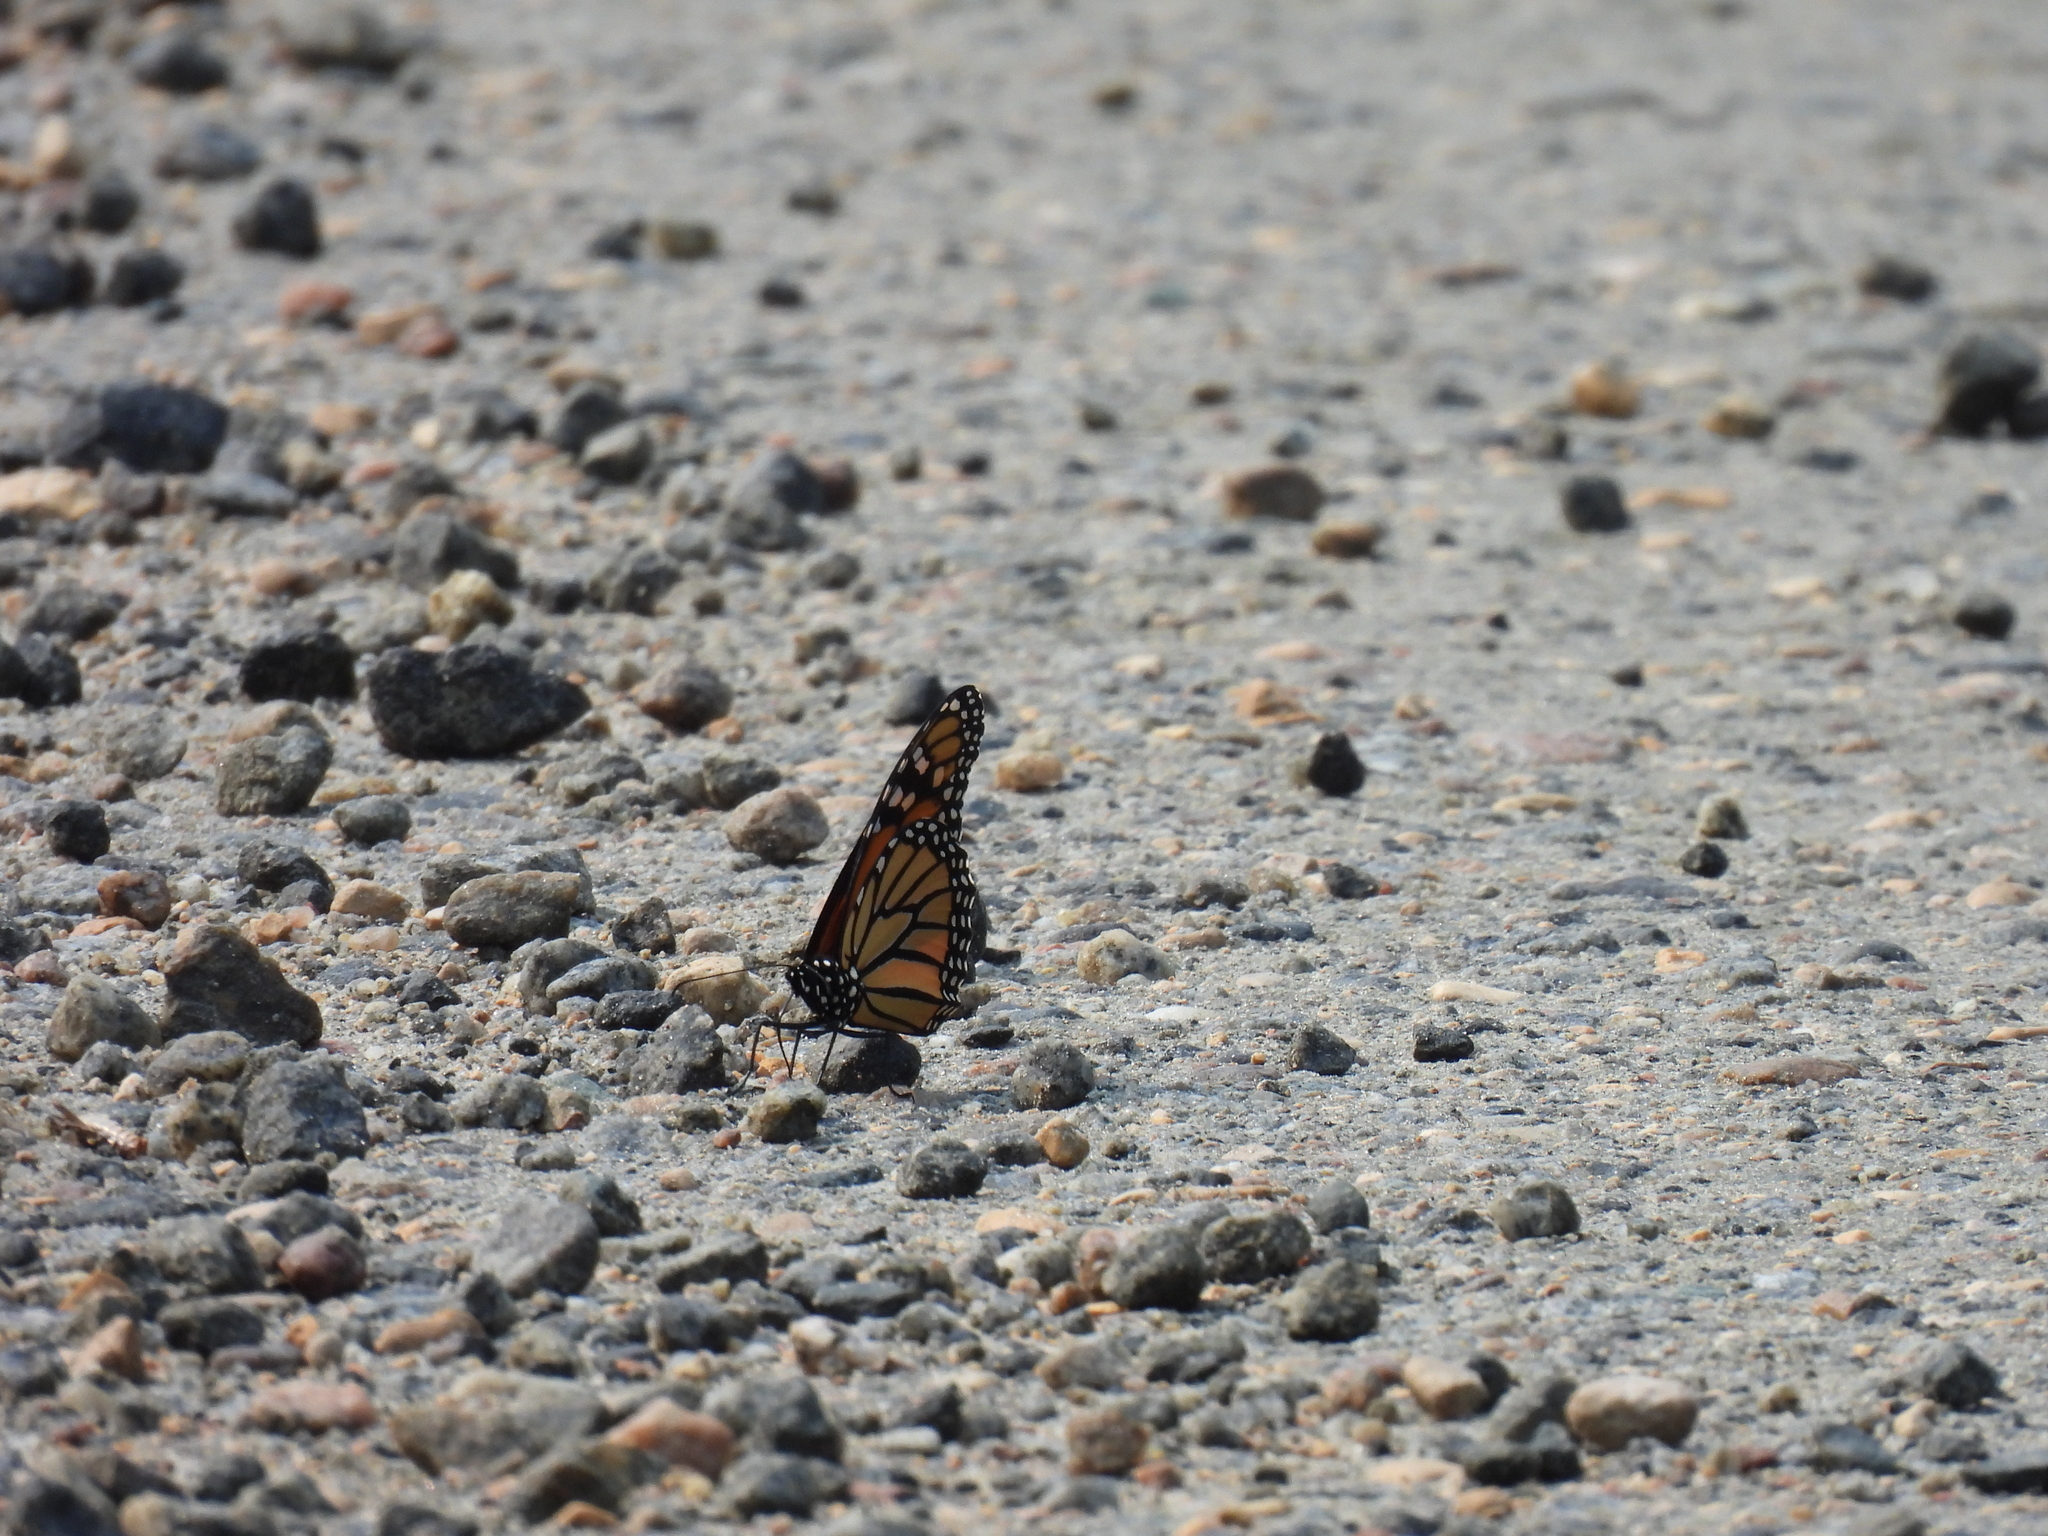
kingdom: Animalia
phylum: Arthropoda
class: Insecta
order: Lepidoptera
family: Nymphalidae
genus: Danaus
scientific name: Danaus plexippus
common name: Monarch
